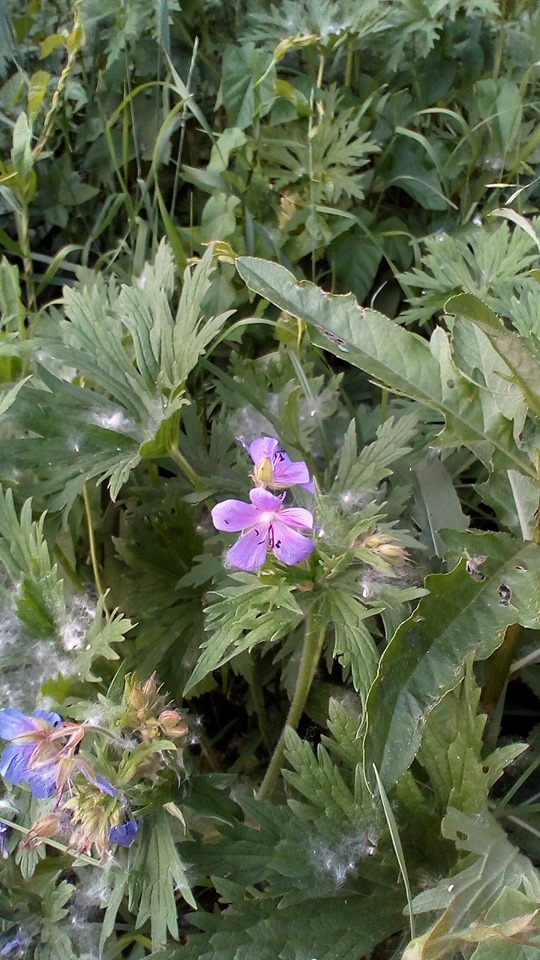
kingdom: Plantae
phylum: Tracheophyta
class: Magnoliopsida
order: Geraniales
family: Geraniaceae
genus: Geranium
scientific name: Geranium pratense
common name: Meadow crane's-bill
